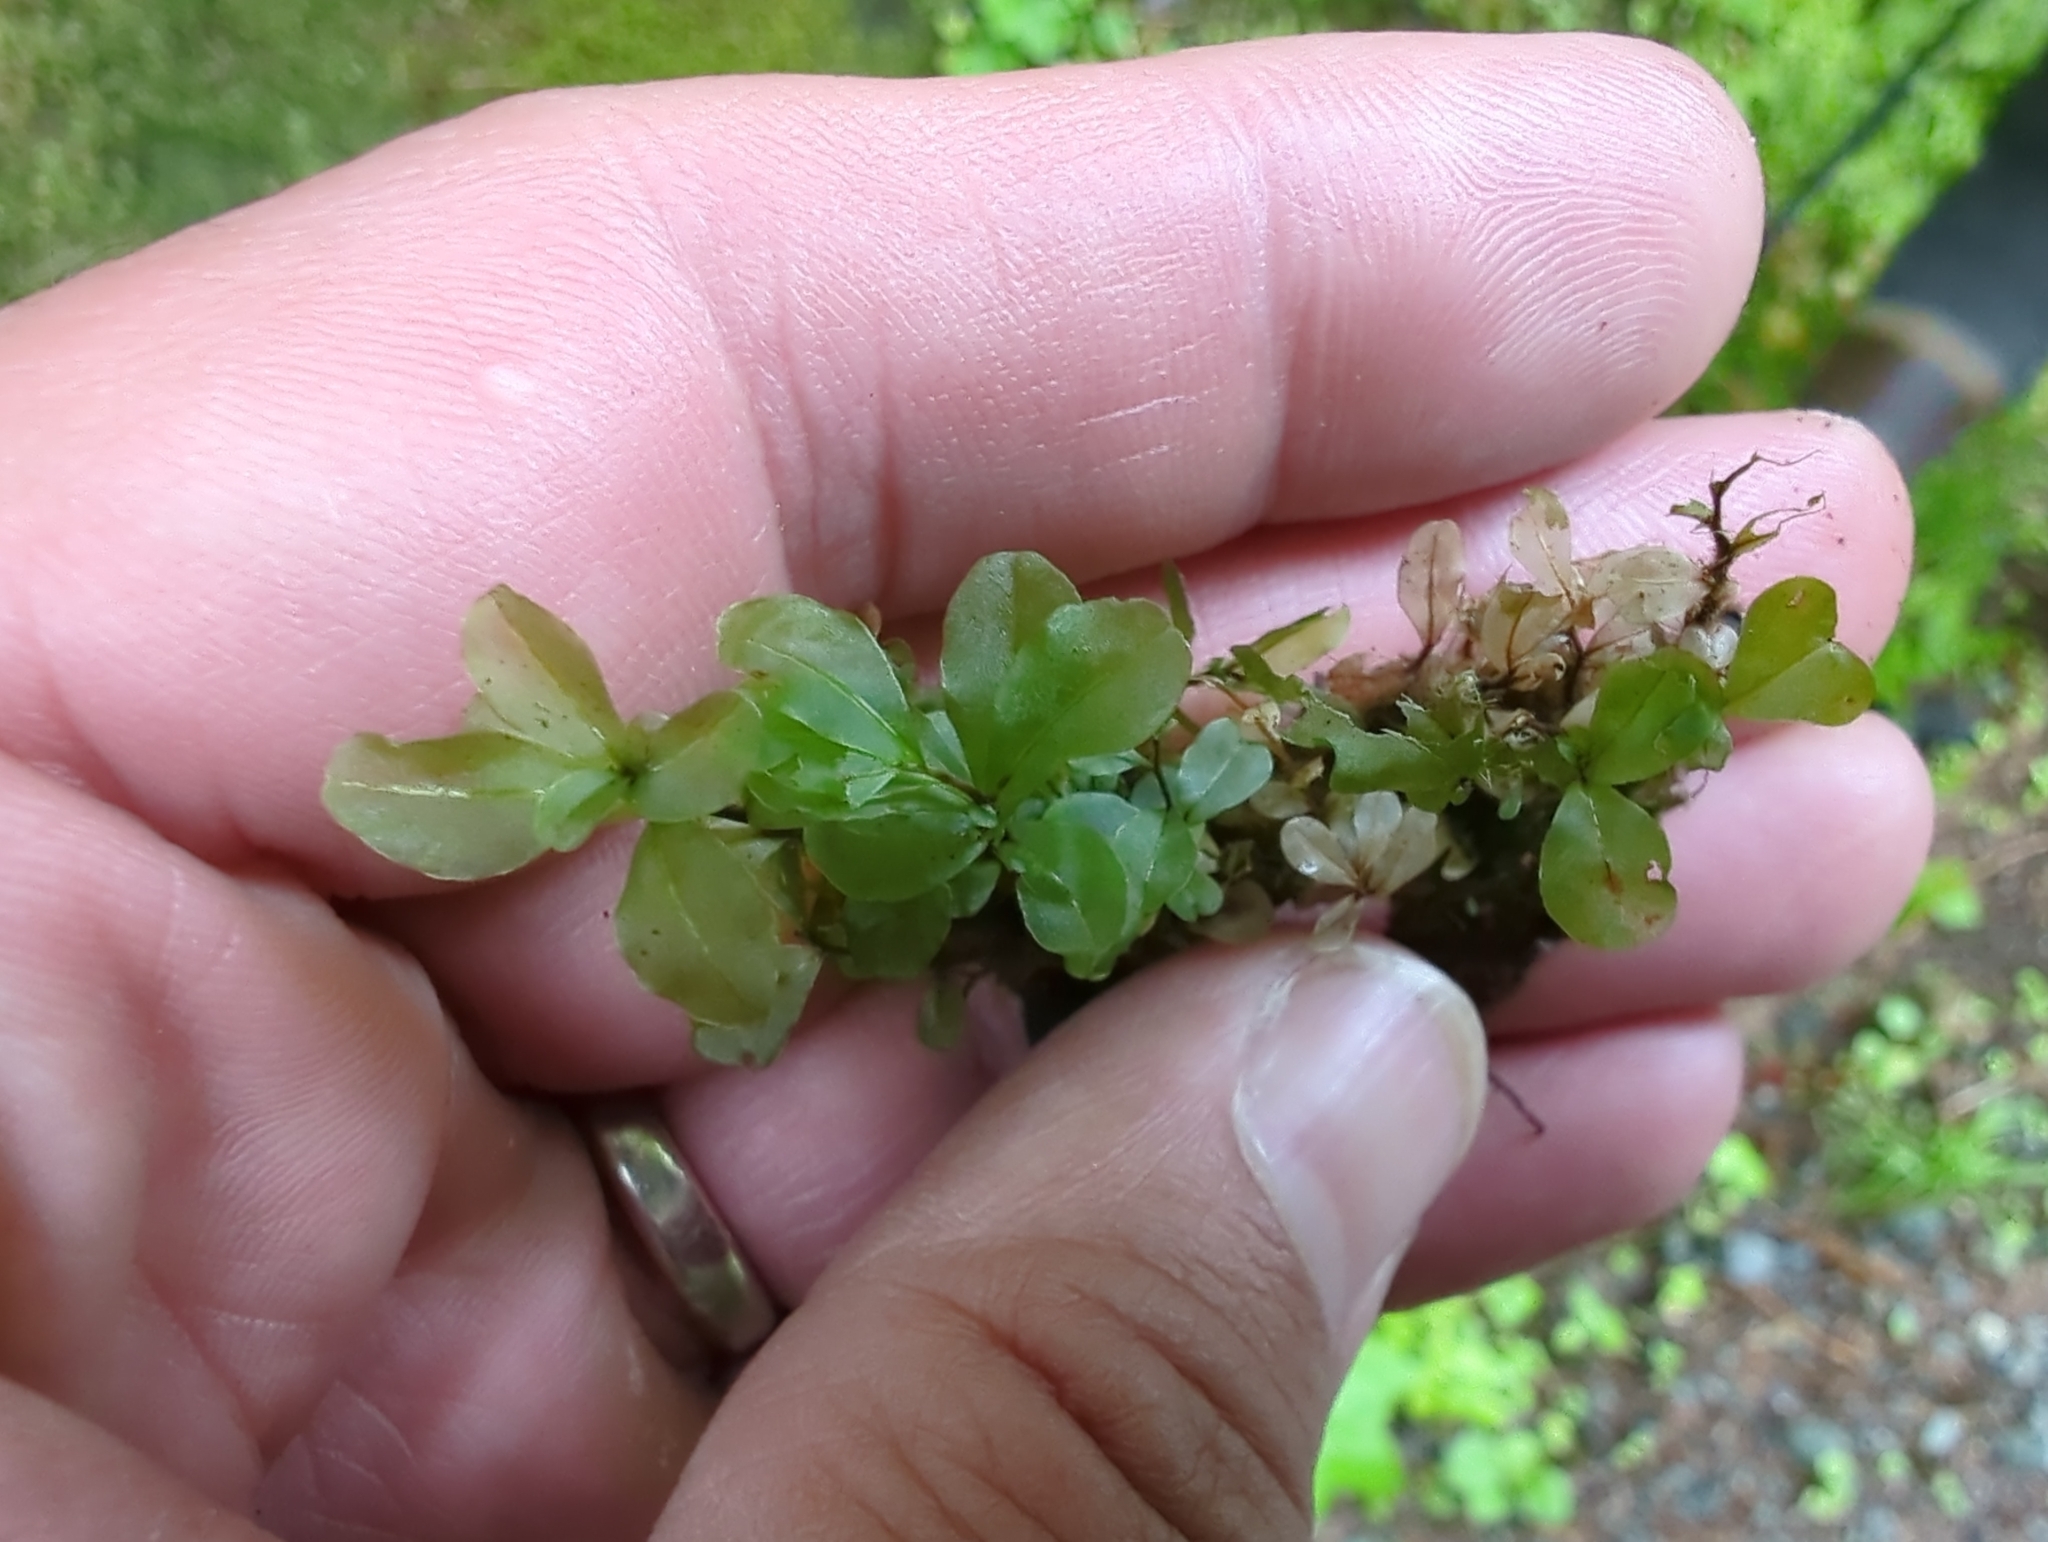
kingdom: Plantae
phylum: Bryophyta
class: Bryopsida
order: Bryales
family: Mniaceae
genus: Rhizomnium
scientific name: Rhizomnium magnifolium
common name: Large-leaved leafy moss
